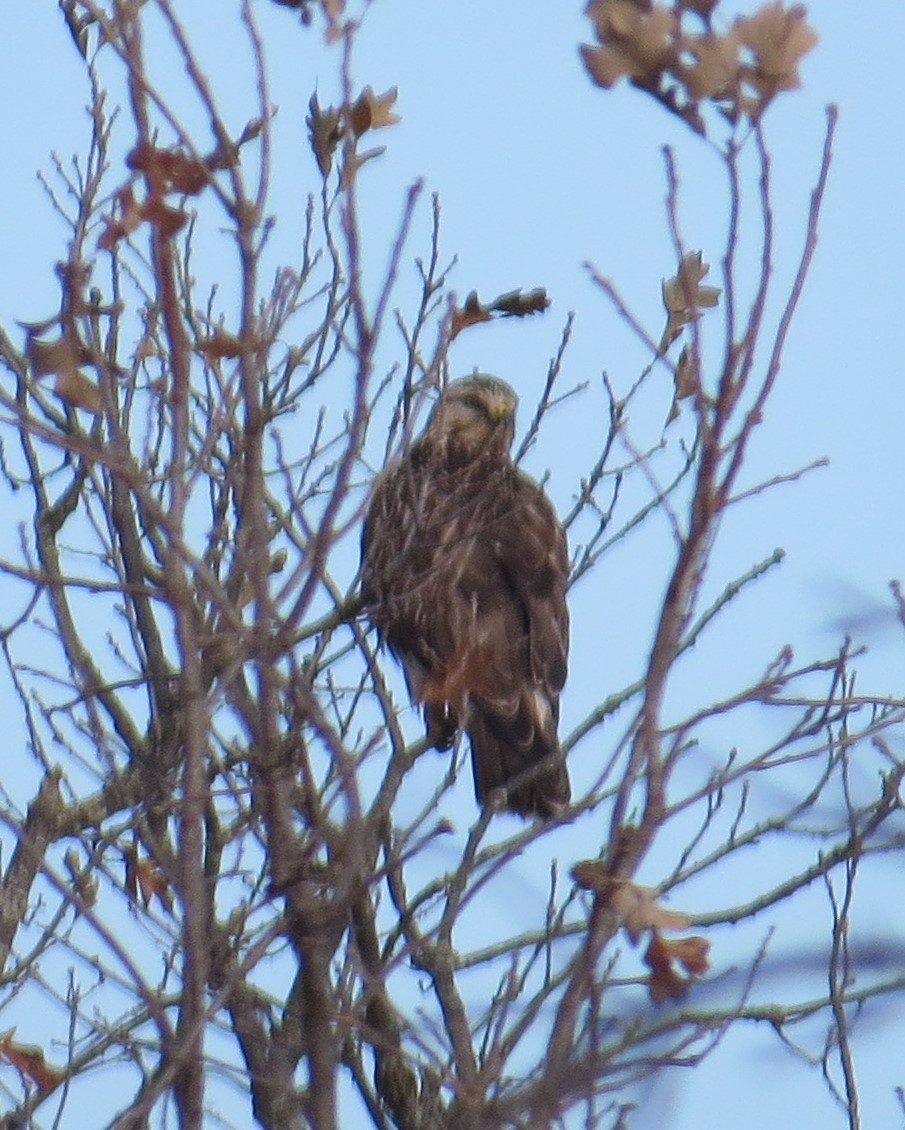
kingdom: Animalia
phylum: Chordata
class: Aves
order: Accipitriformes
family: Accipitridae
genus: Buteo
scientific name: Buteo lagopus
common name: Rough-legged buzzard
